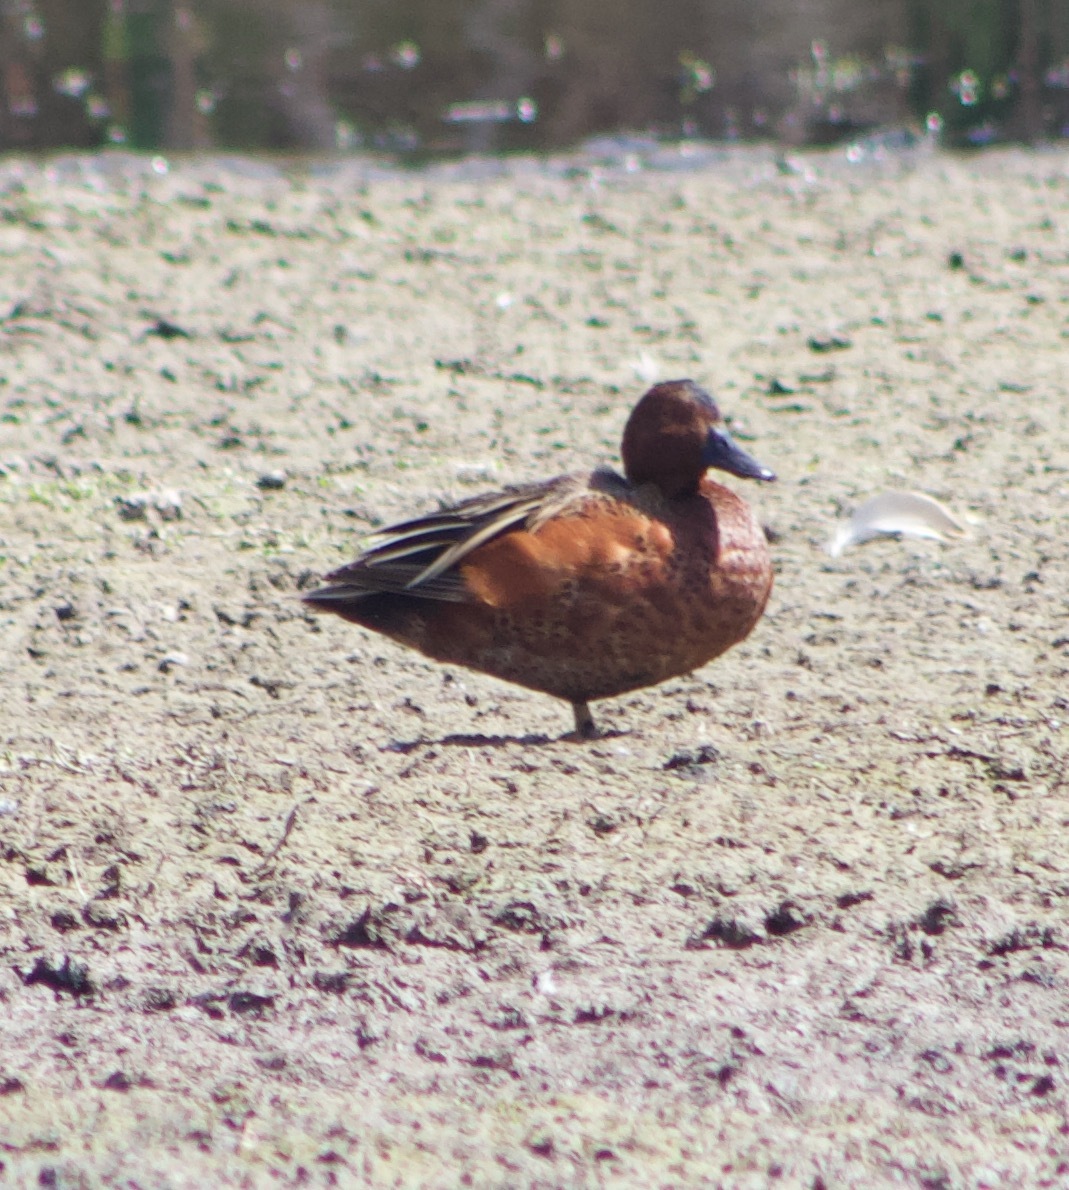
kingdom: Animalia
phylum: Chordata
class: Aves
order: Anseriformes
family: Anatidae
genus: Spatula
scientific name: Spatula cyanoptera
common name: Cinnamon teal
